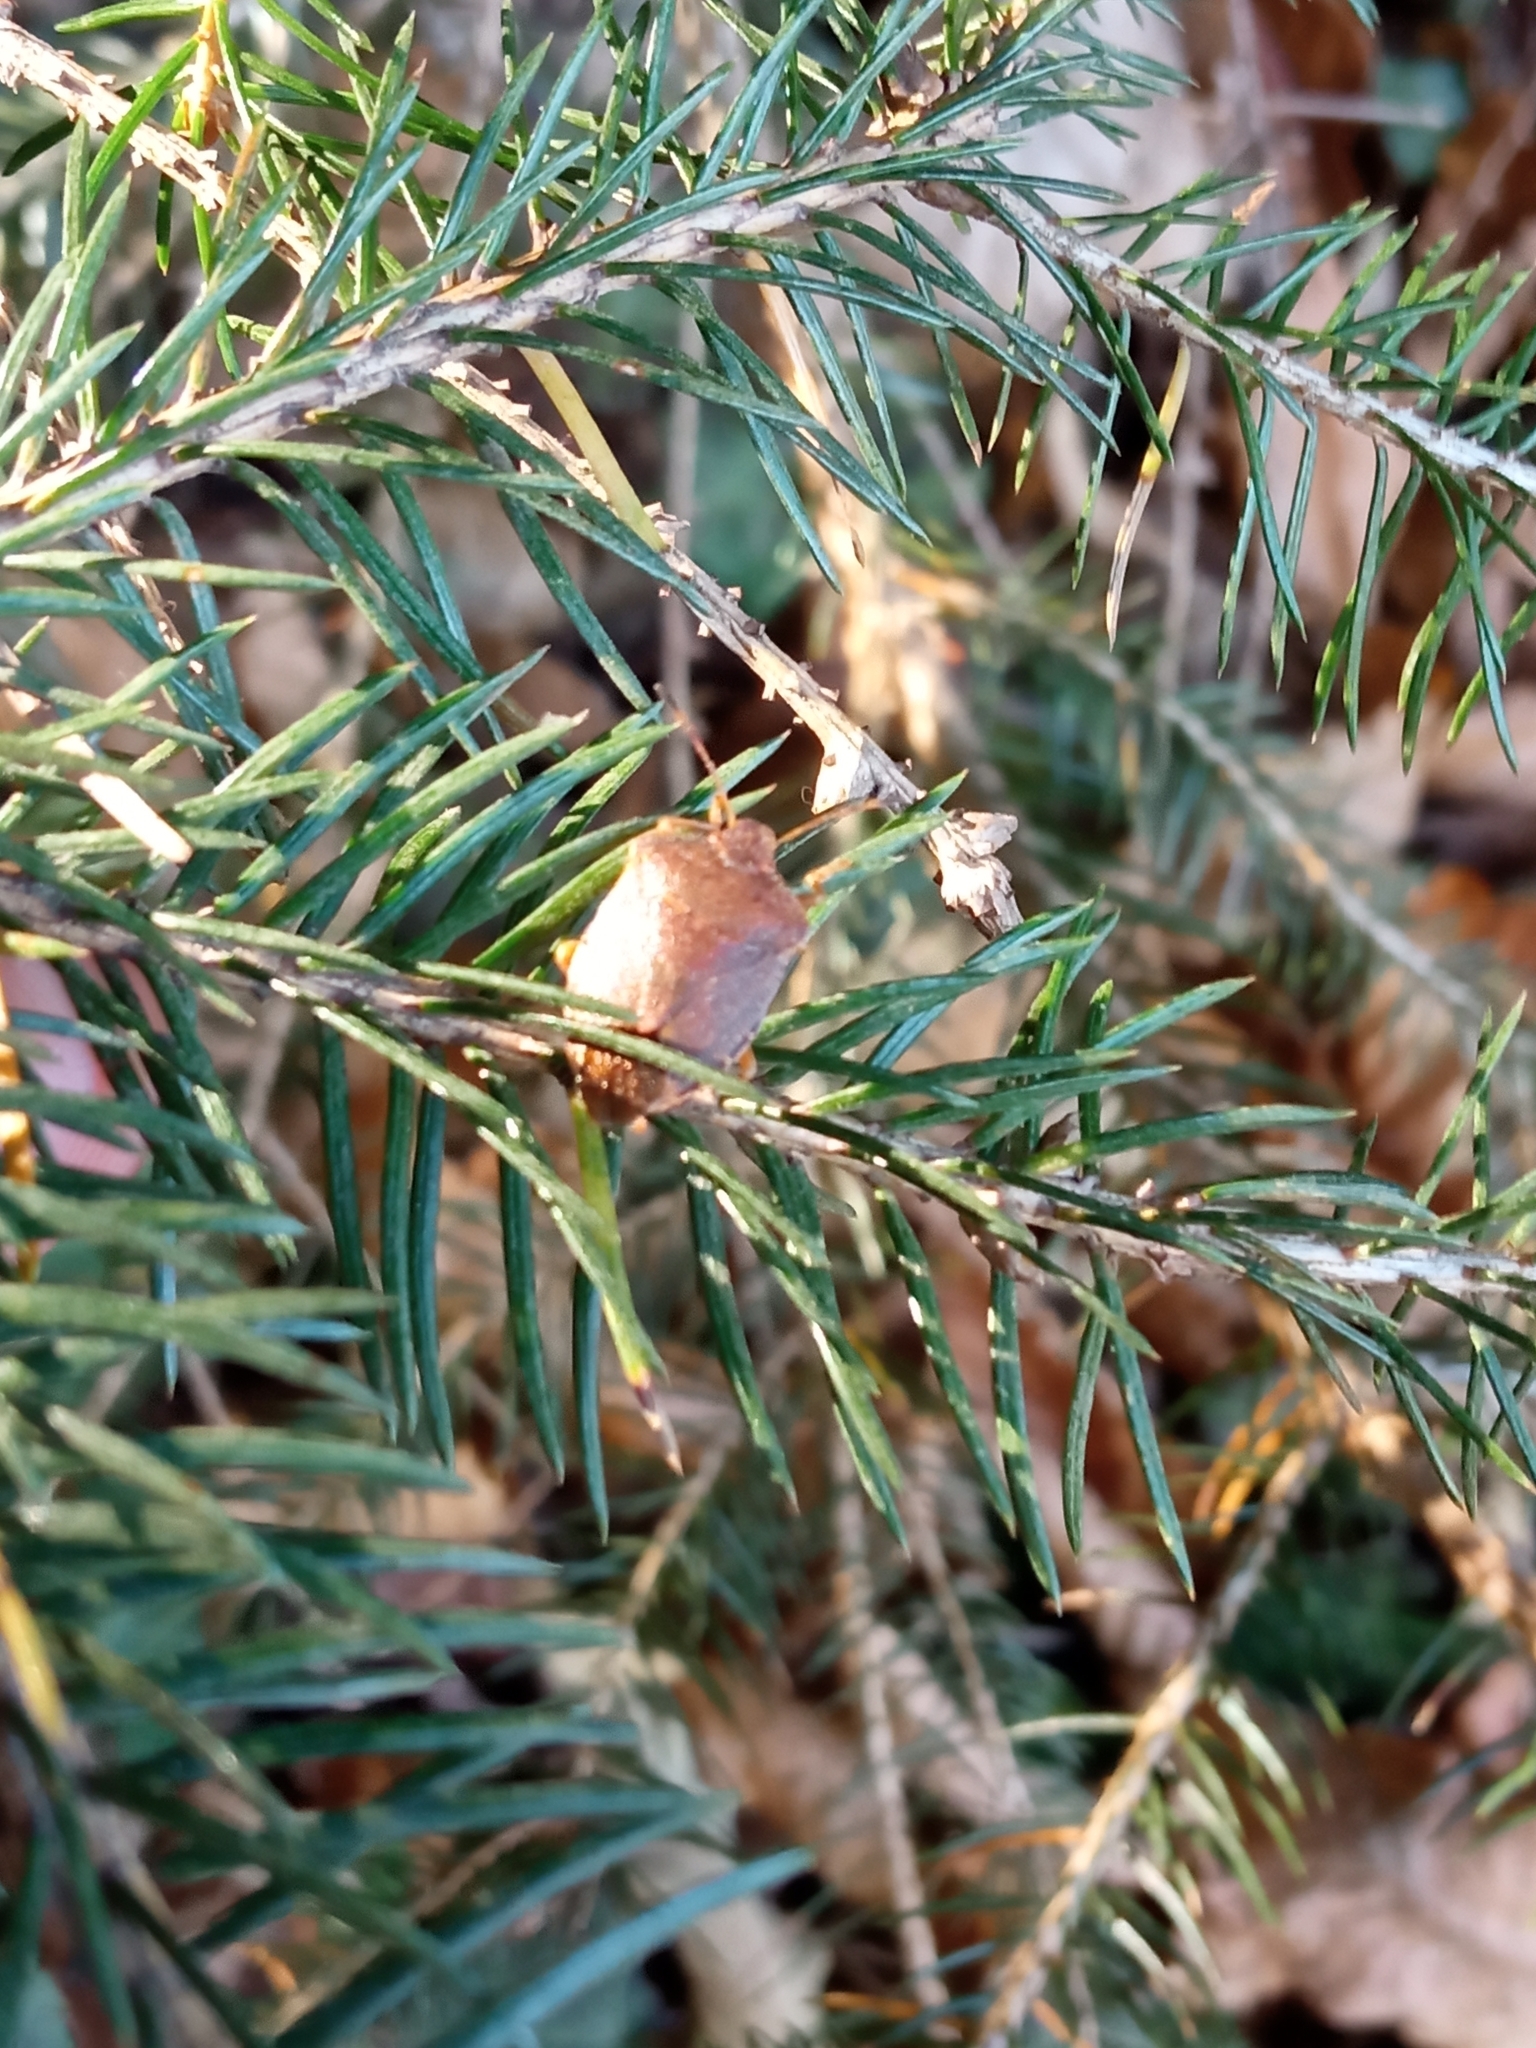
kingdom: Animalia
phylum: Arthropoda
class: Insecta
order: Hemiptera
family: Pentatomidae
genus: Palomena
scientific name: Palomena prasina
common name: Green shieldbug
